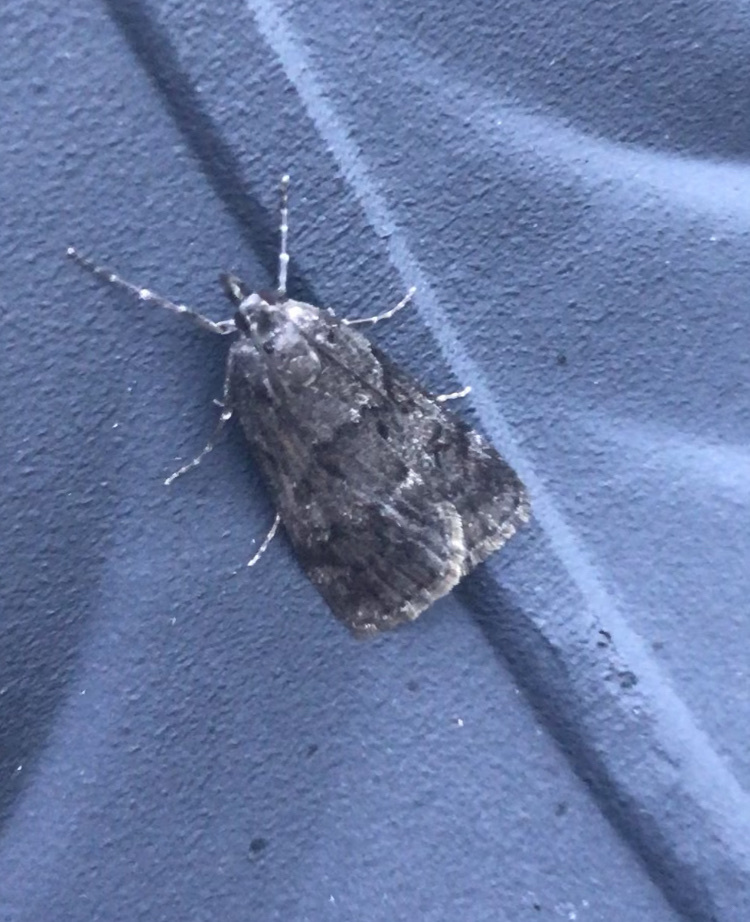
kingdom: Animalia
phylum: Arthropoda
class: Insecta
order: Lepidoptera
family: Crambidae
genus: Gesneria
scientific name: Gesneria centuriella
